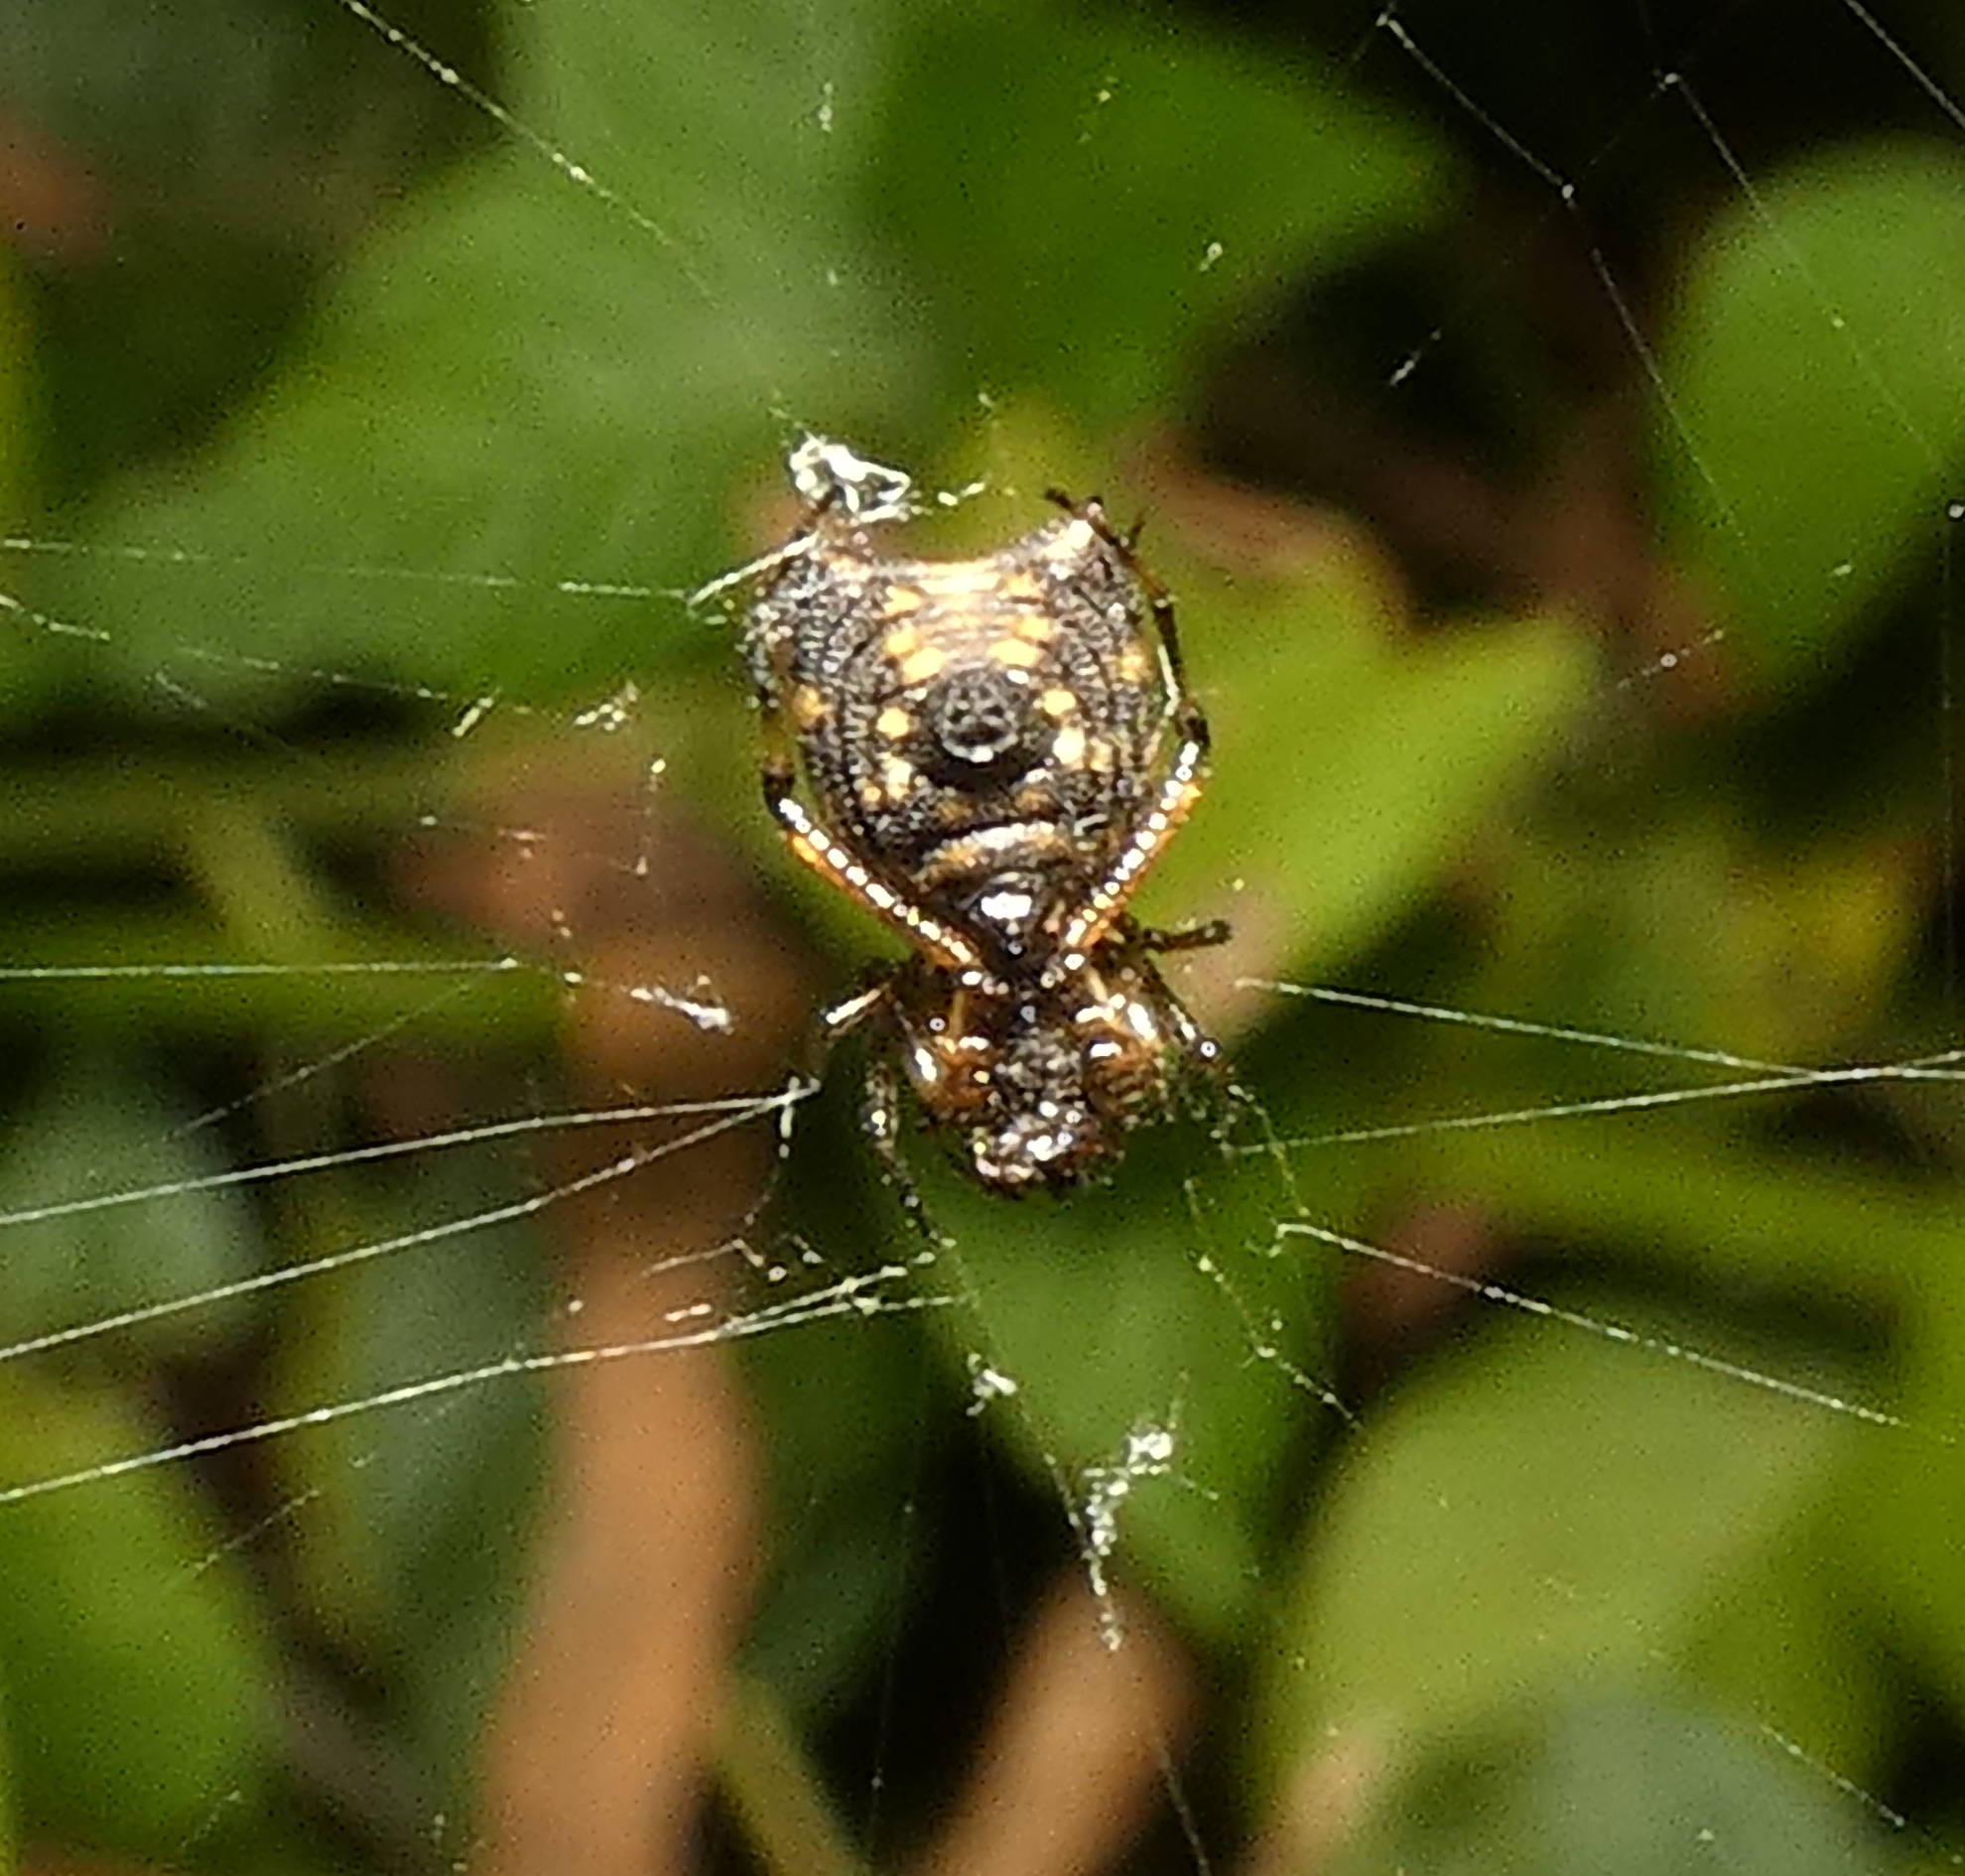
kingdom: Animalia
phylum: Arthropoda
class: Arachnida
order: Araneae
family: Araneidae
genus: Micrathena
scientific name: Micrathena picta
